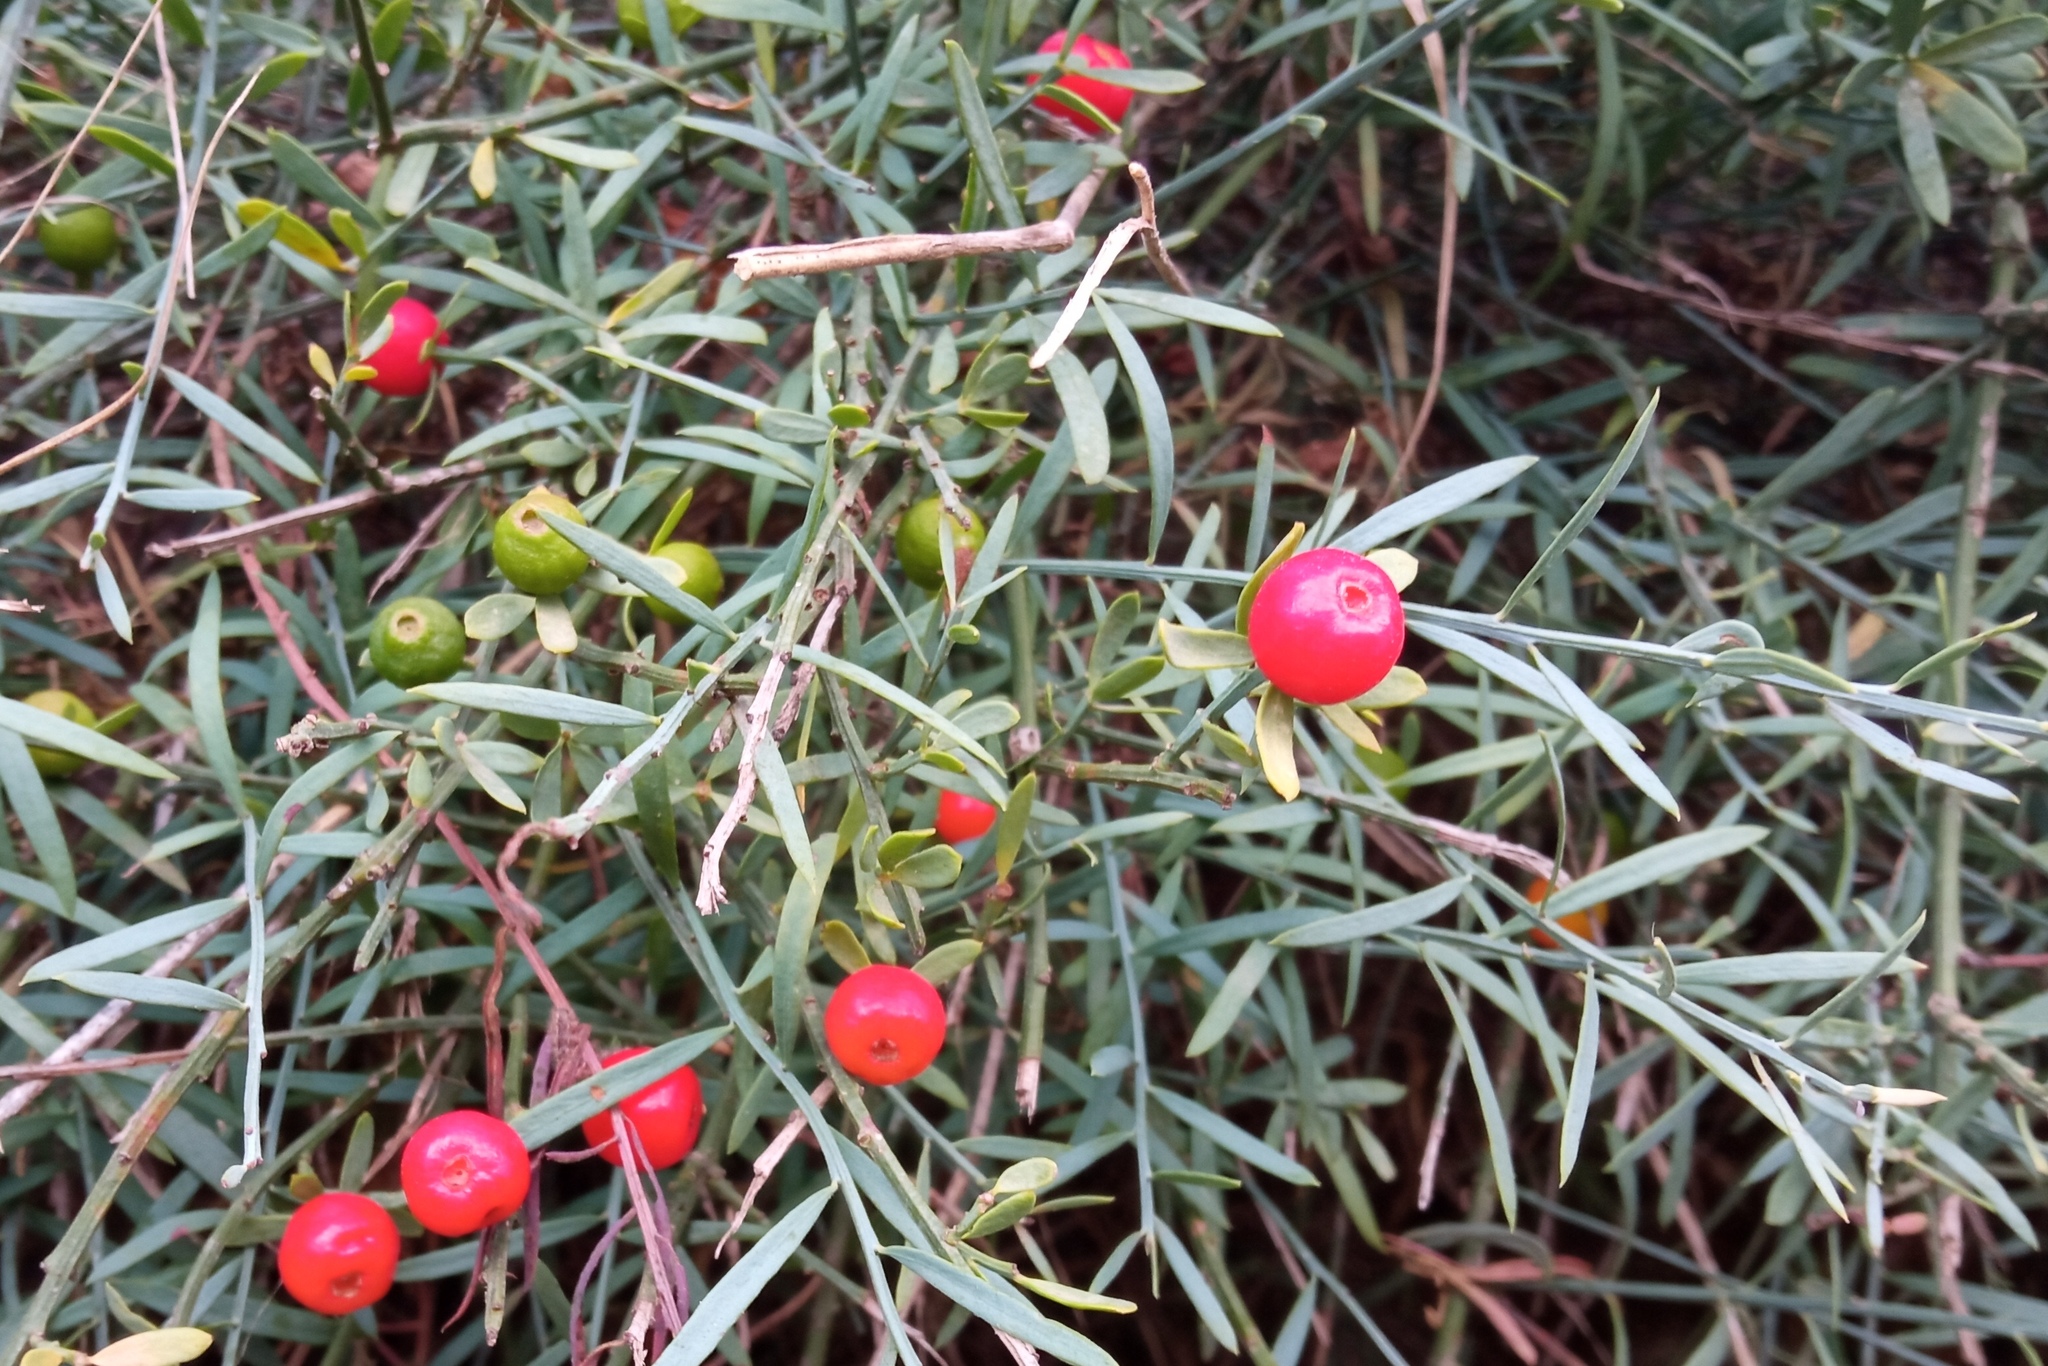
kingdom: Plantae
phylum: Tracheophyta
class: Magnoliopsida
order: Santalales
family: Santalaceae
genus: Osyris
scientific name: Osyris alba
